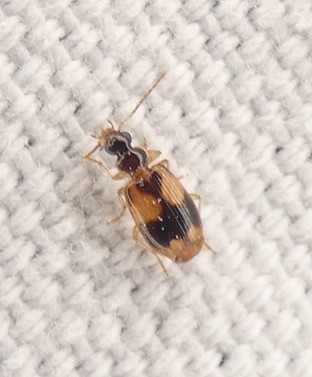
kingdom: Animalia
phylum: Arthropoda
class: Insecta
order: Coleoptera
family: Carabidae
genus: Lebia
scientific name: Lebia esurialis
